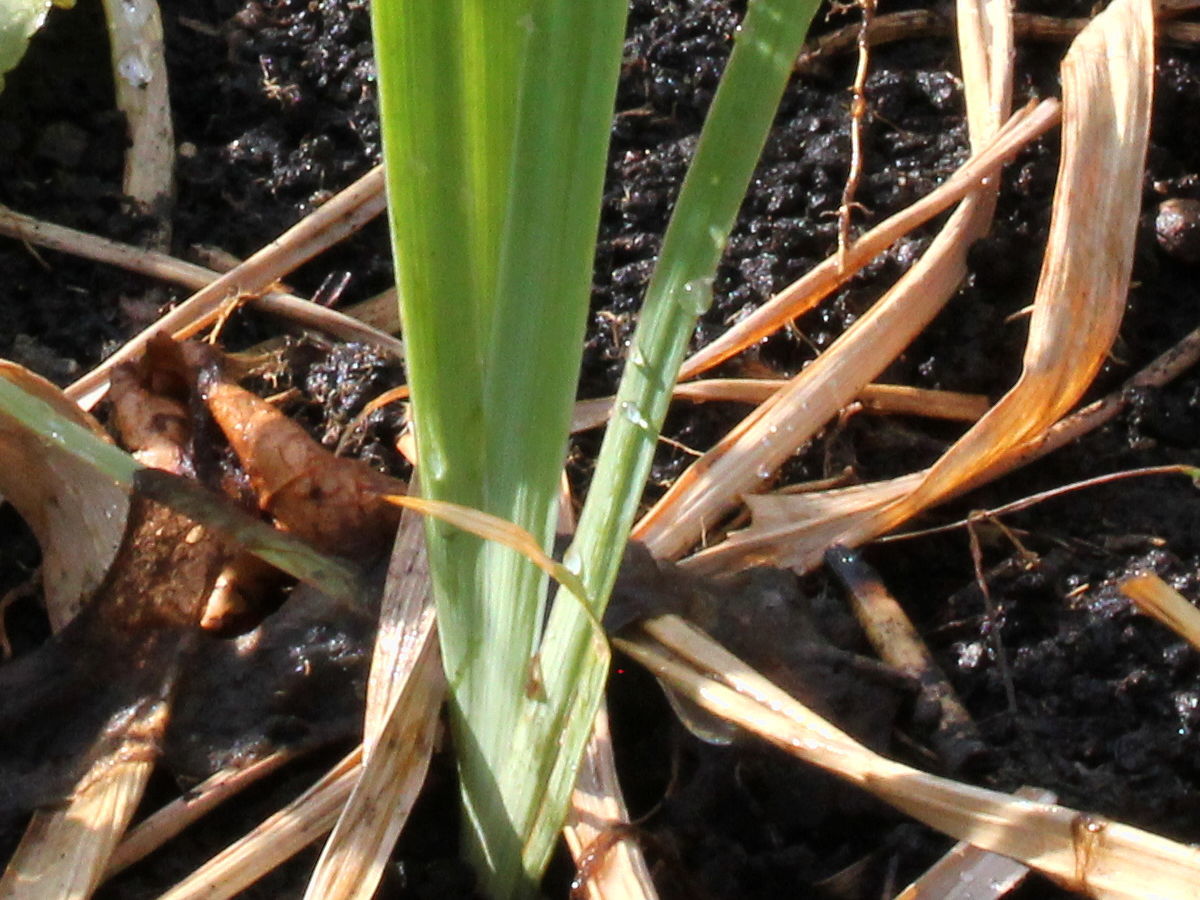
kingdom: Plantae
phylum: Tracheophyta
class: Liliopsida
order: Asparagales
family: Iridaceae
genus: Iris
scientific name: Iris virginica
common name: Southern blue flag
